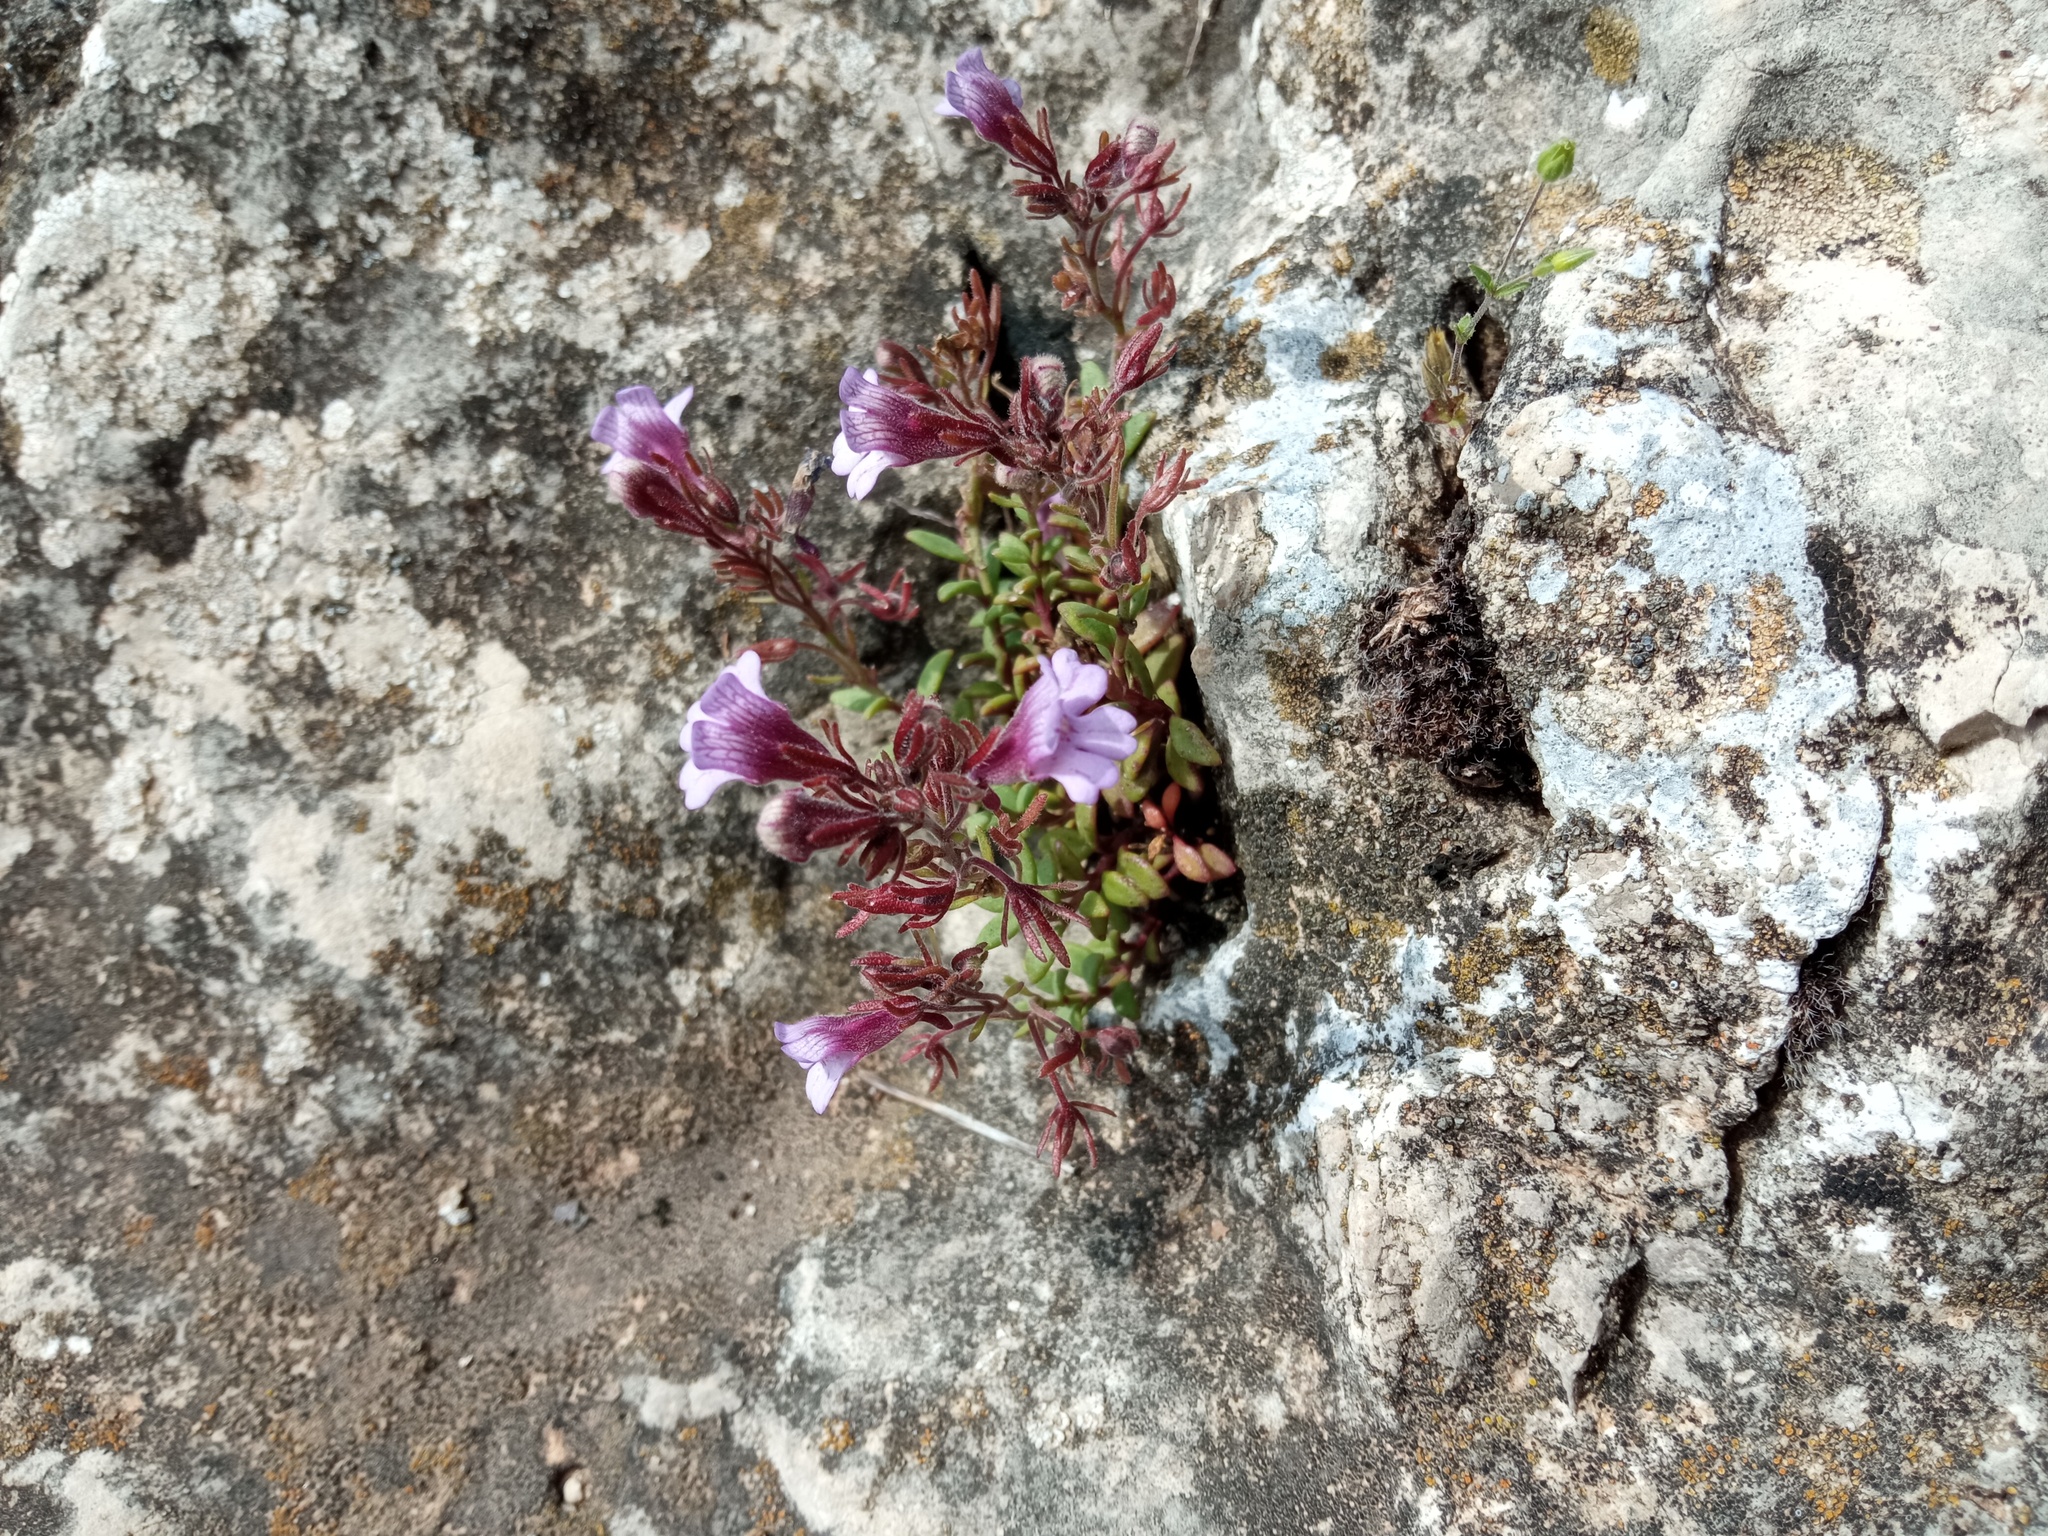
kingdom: Plantae
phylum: Tracheophyta
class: Magnoliopsida
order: Lamiales
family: Plantaginaceae
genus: Chaenorhinum
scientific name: Chaenorhinum crassifolium
